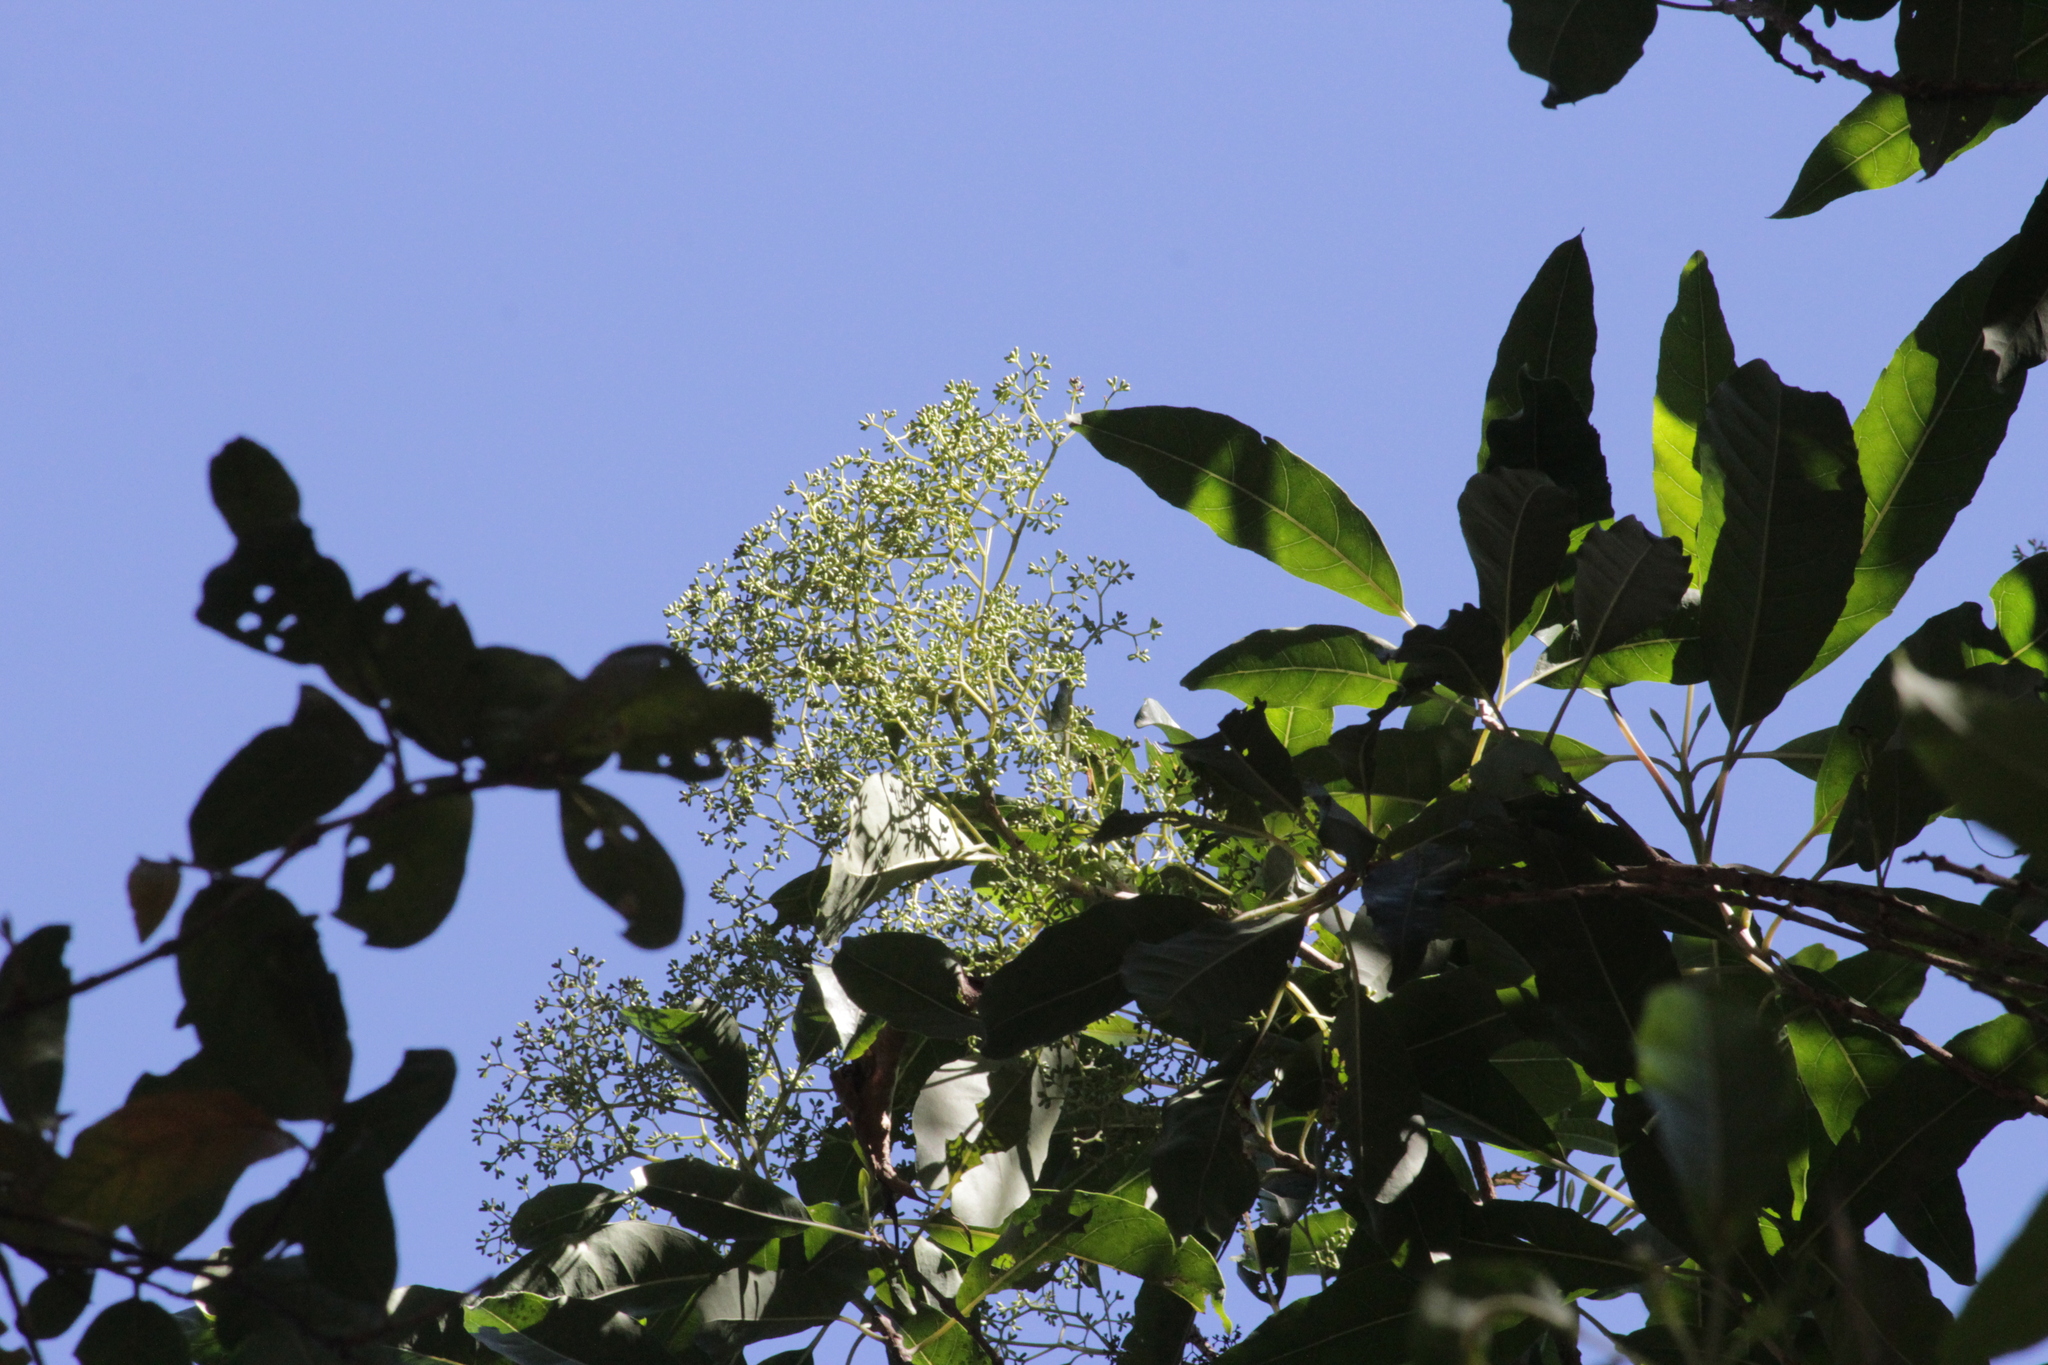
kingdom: Plantae
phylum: Tracheophyta
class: Magnoliopsida
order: Lamiales
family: Stilbaceae
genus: Nuxia
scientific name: Nuxia floribunda
